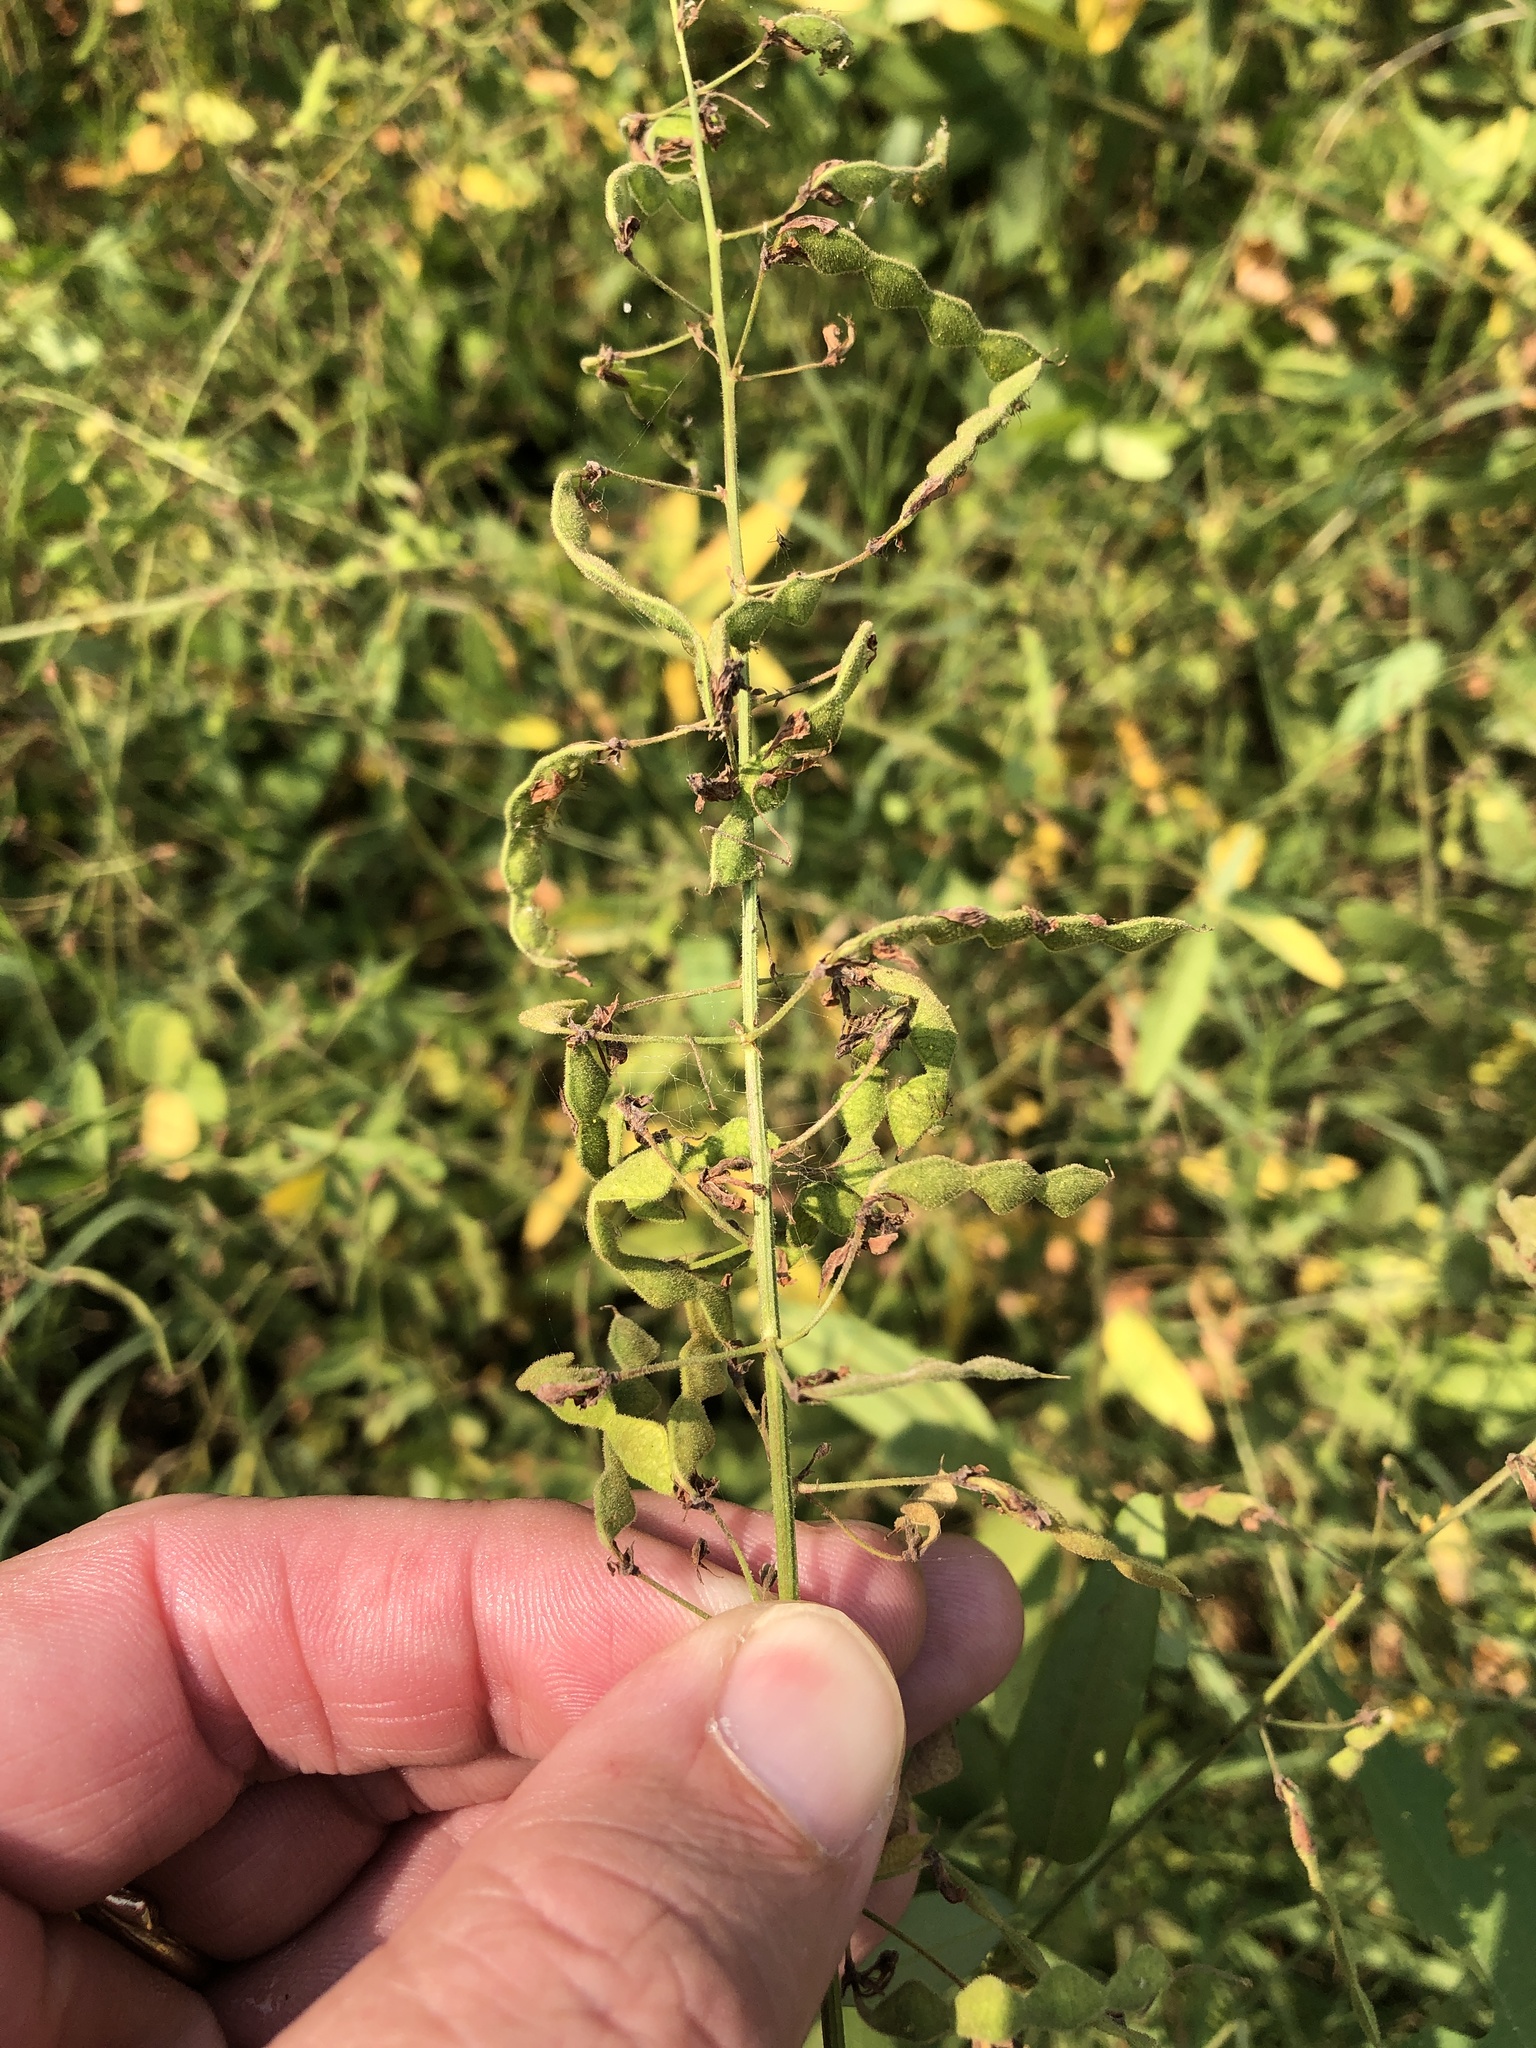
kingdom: Plantae
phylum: Tracheophyta
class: Magnoliopsida
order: Fabales
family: Fabaceae
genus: Desmodium
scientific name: Desmodium paniculatum
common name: Panicled tick-clover
